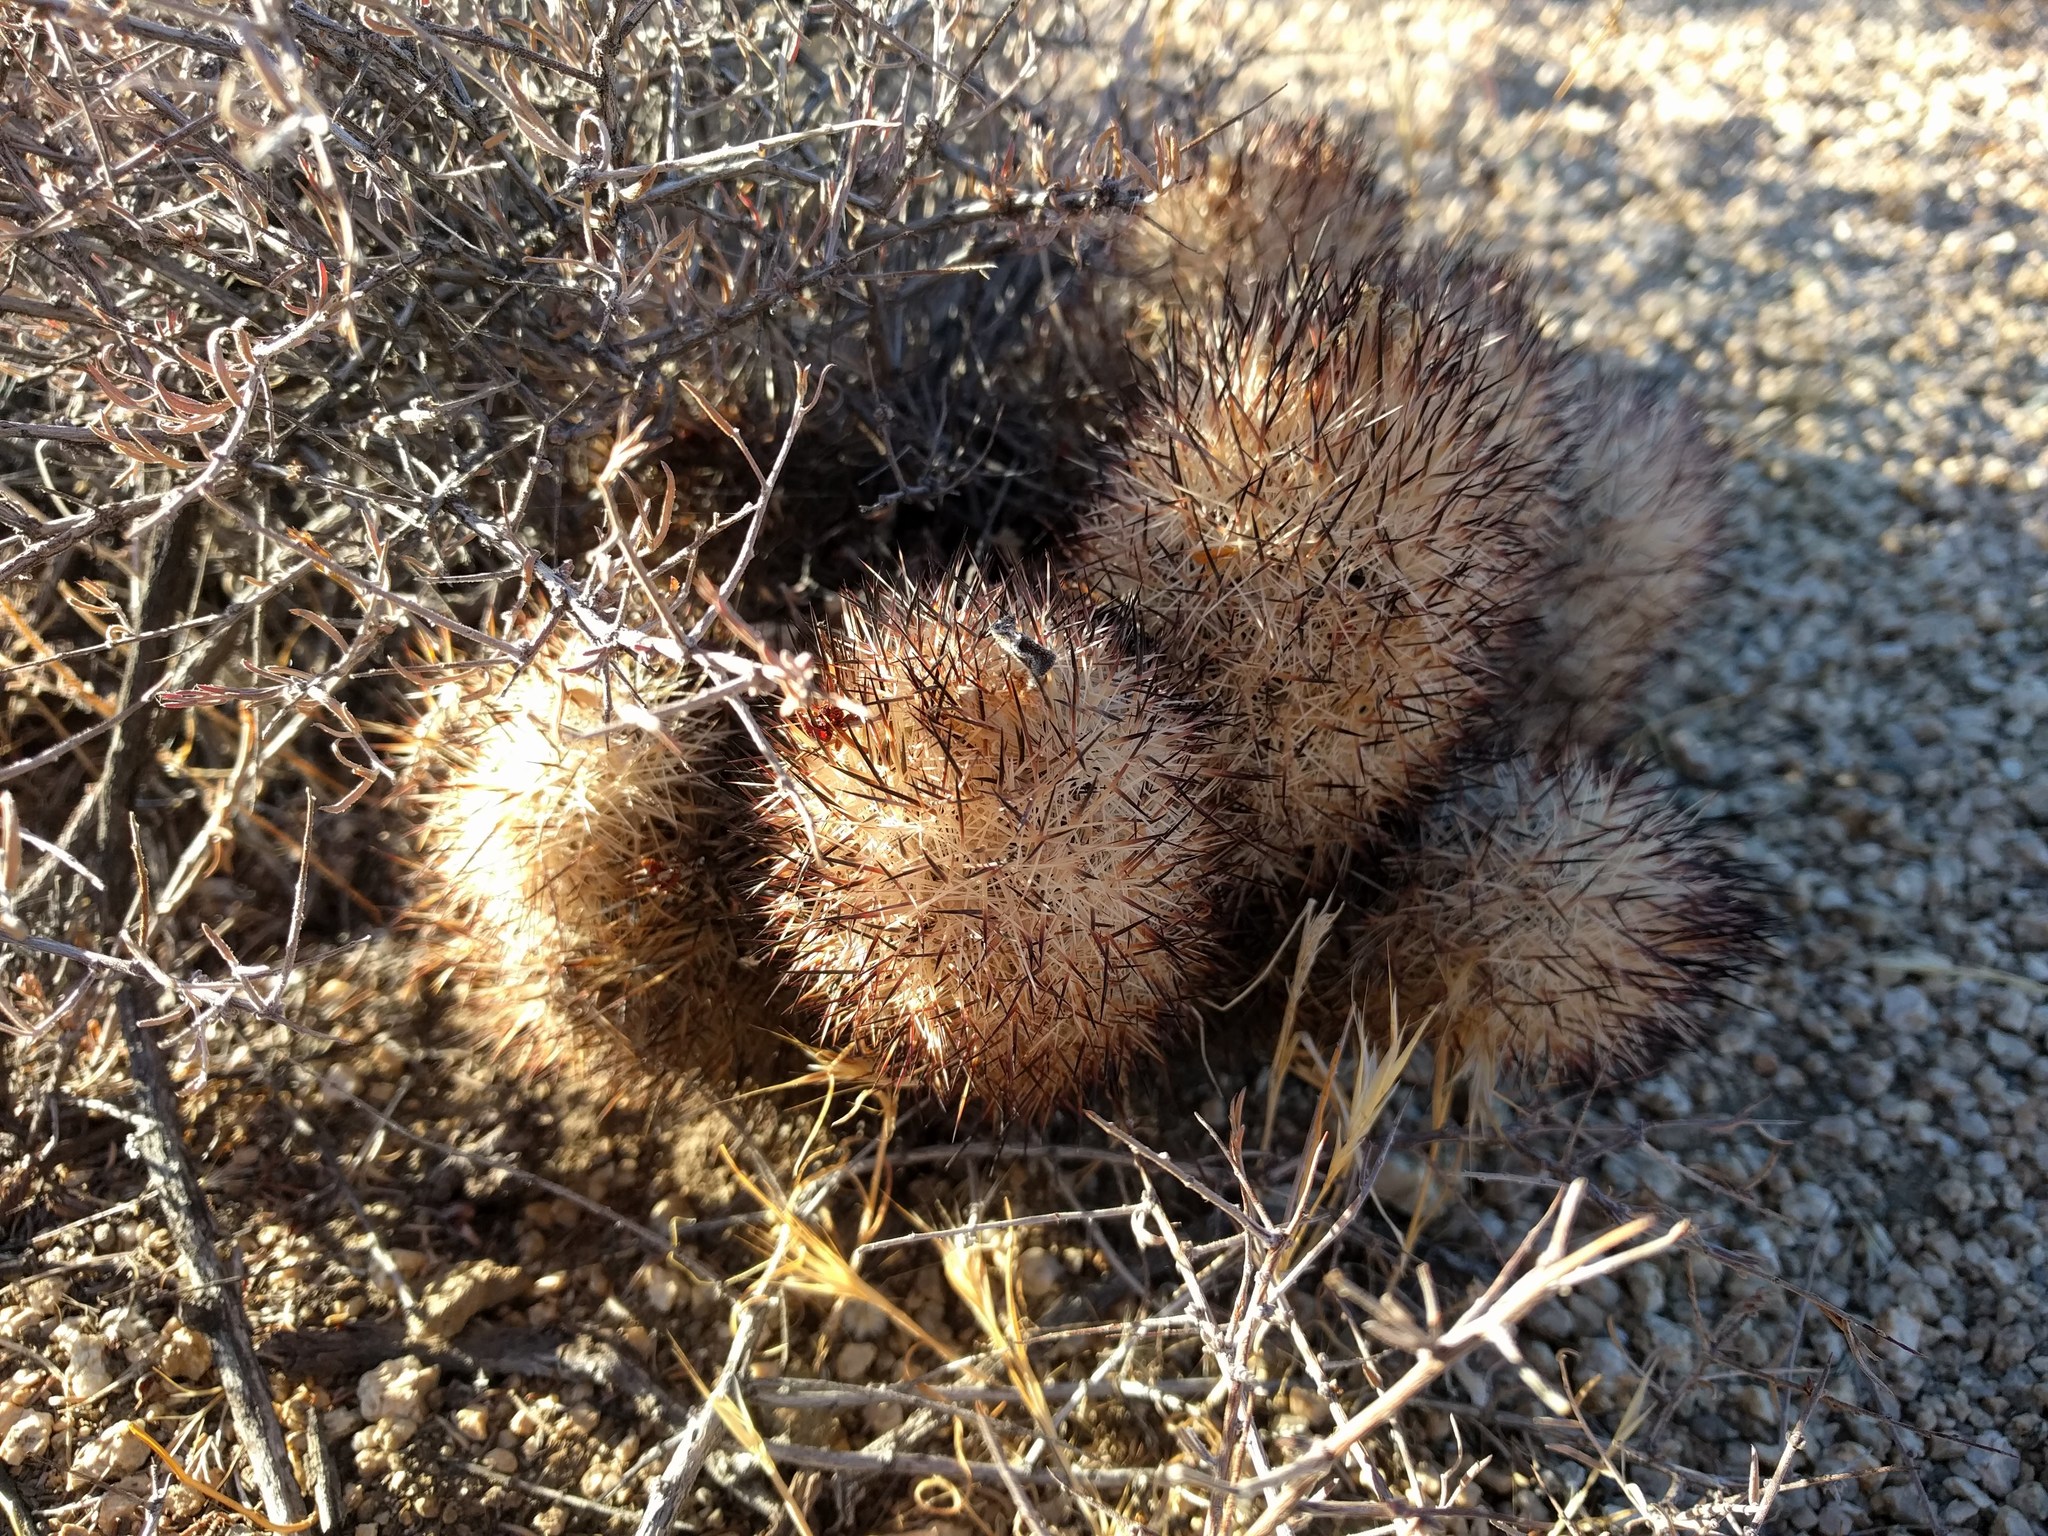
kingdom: Plantae
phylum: Tracheophyta
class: Magnoliopsida
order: Caryophyllales
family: Cactaceae
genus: Pelecyphora
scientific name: Pelecyphora alversonii
